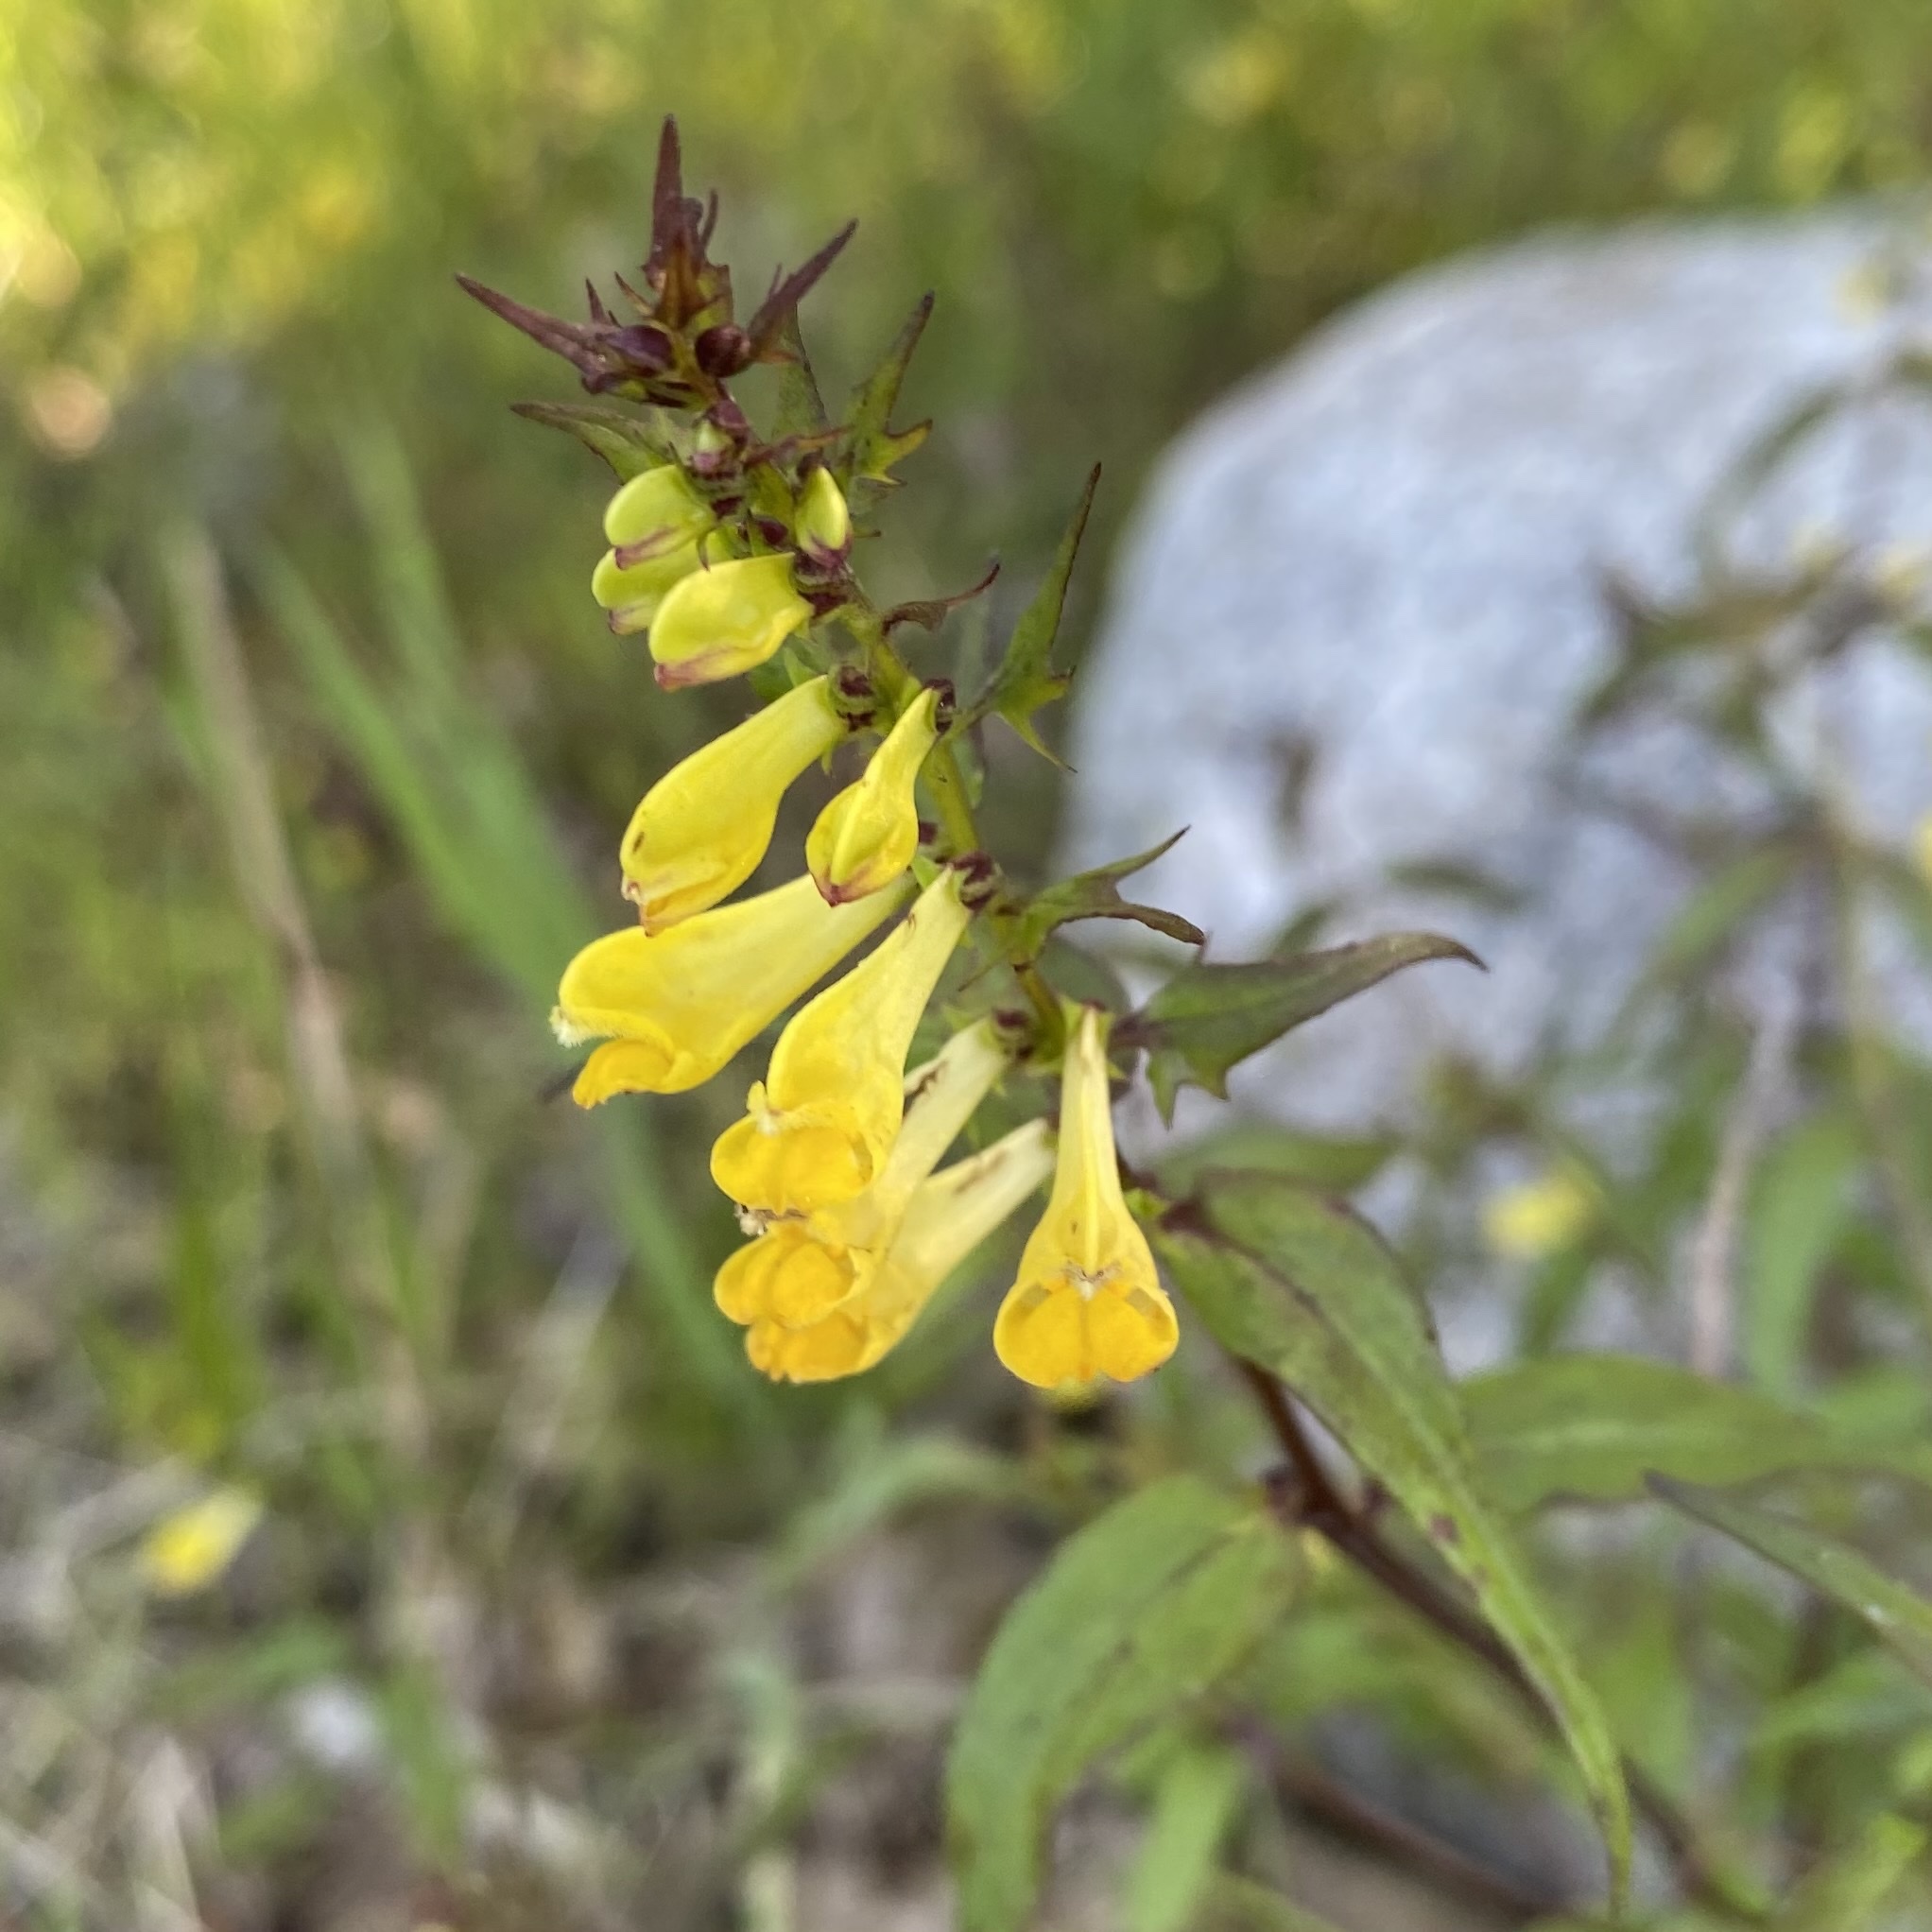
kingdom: Plantae
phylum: Tracheophyta
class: Magnoliopsida
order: Lamiales
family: Orobanchaceae
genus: Melampyrum
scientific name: Melampyrum pratense
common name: Common cow-wheat
